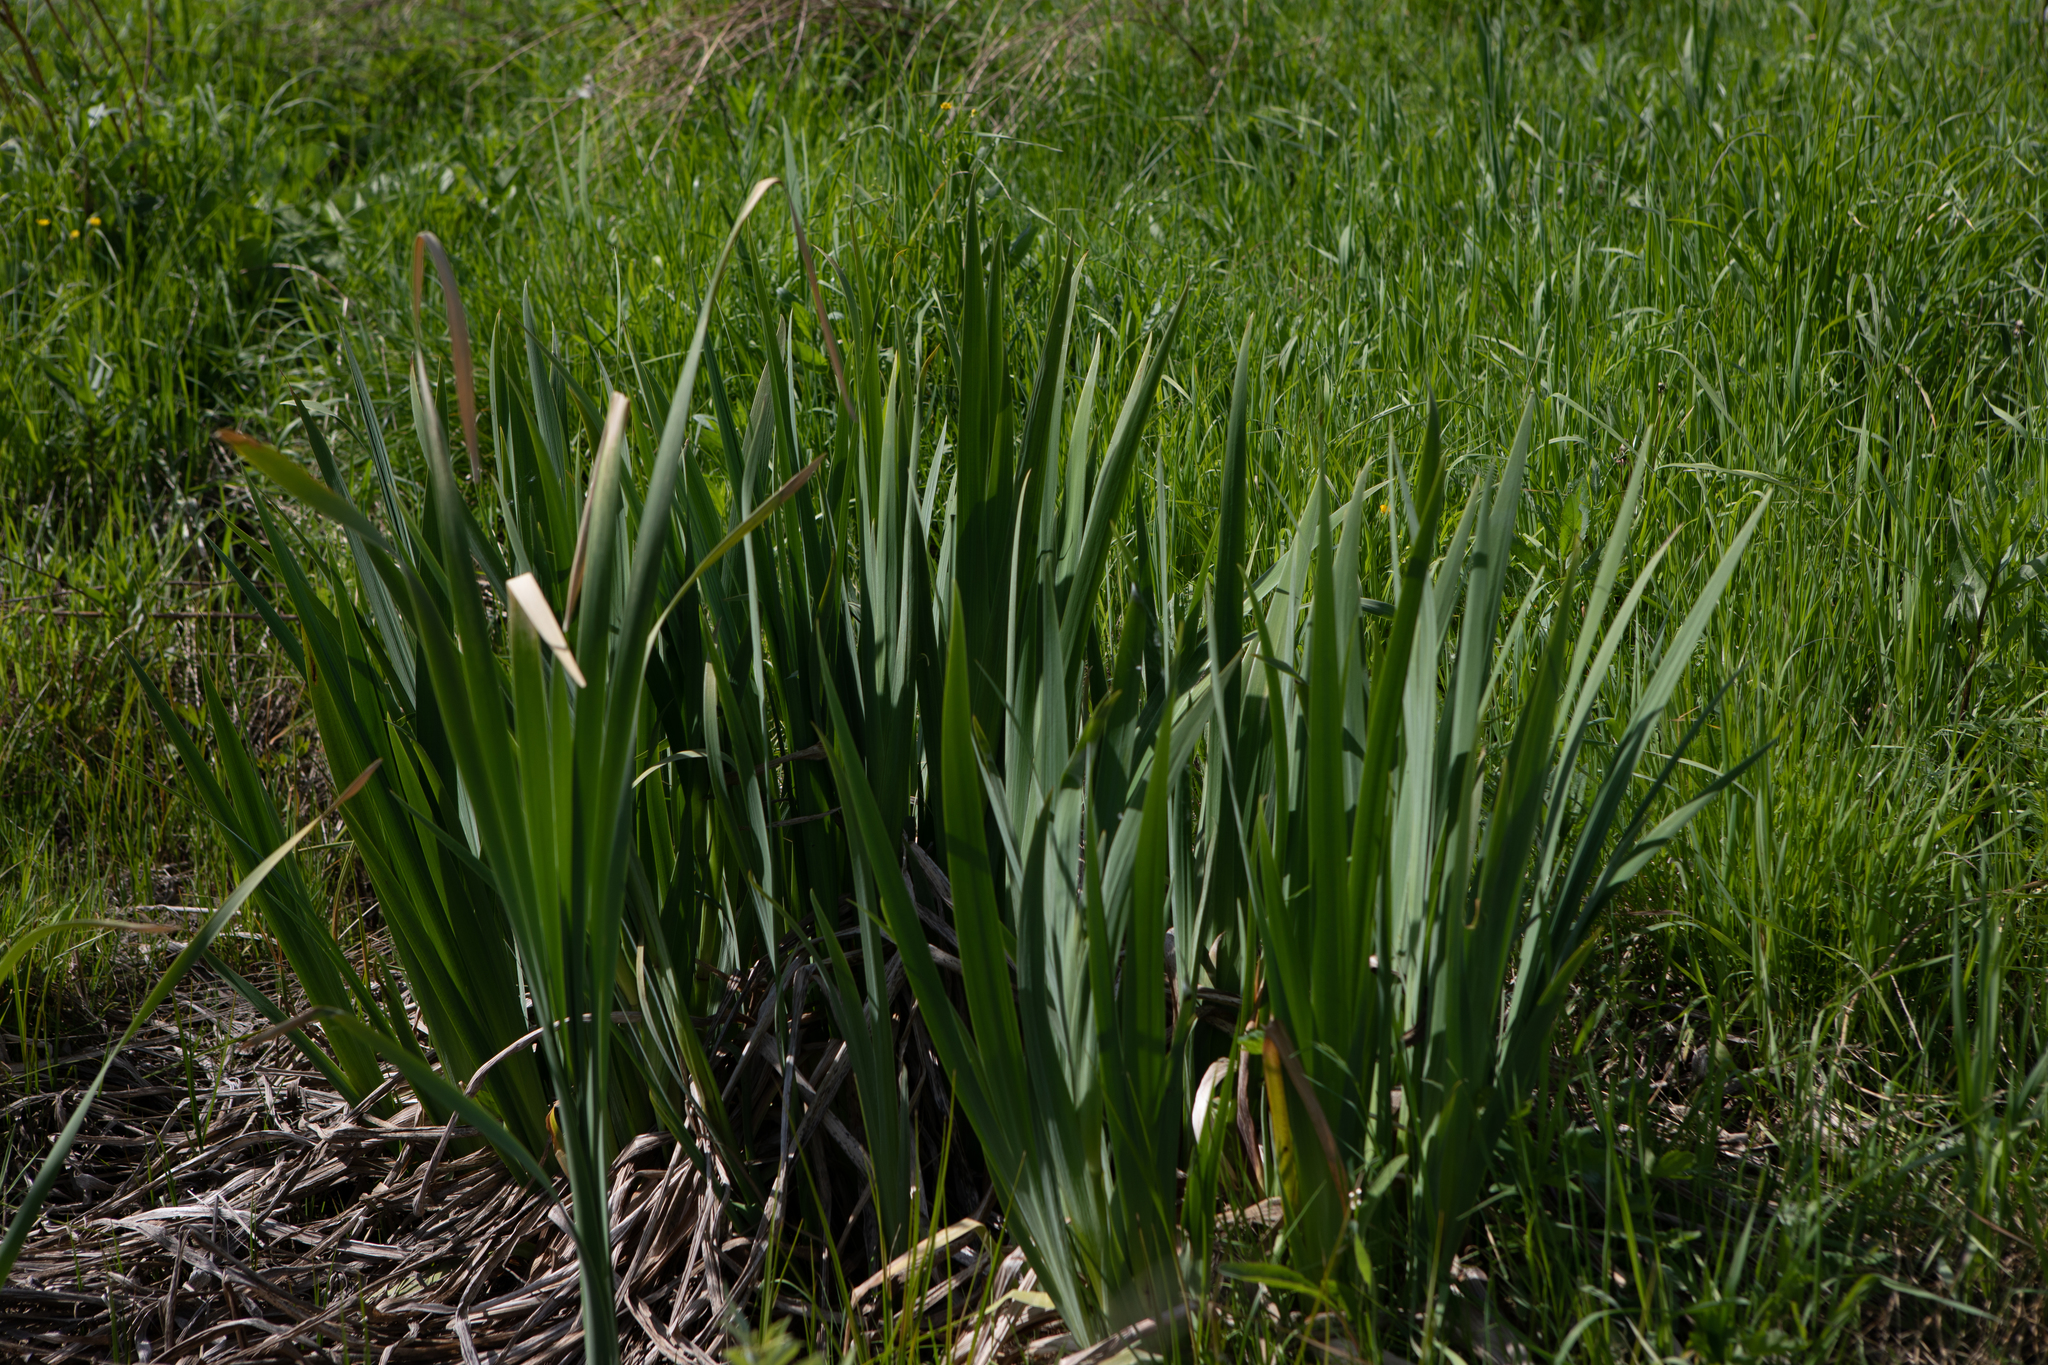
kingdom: Plantae
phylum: Tracheophyta
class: Liliopsida
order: Asparagales
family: Iridaceae
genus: Iris
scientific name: Iris pseudacorus
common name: Yellow flag
